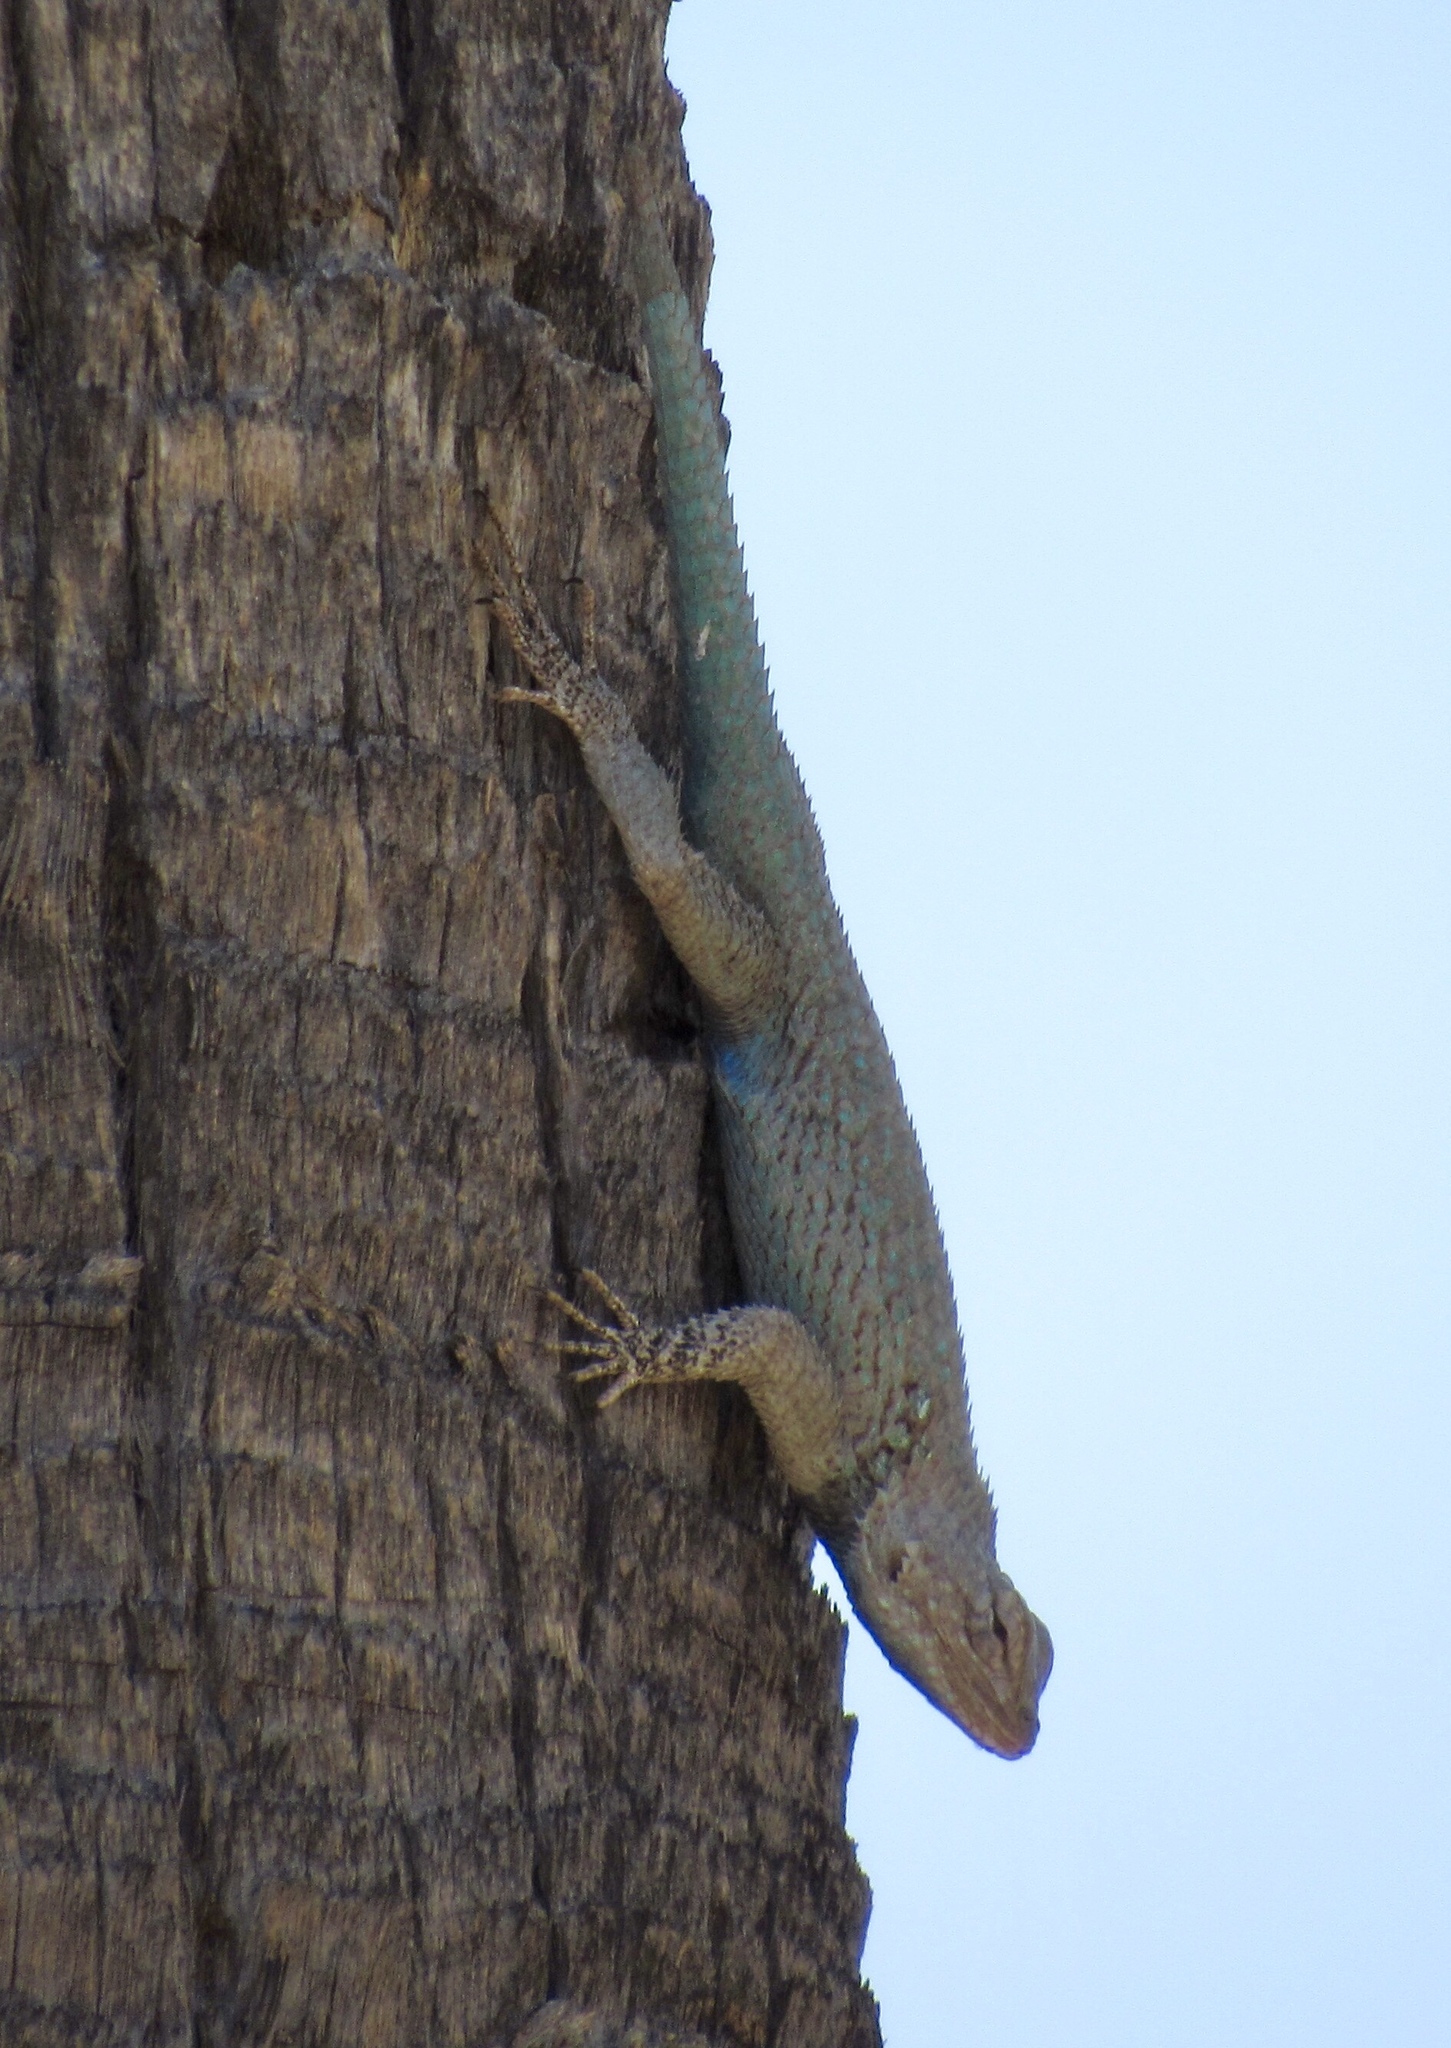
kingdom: Animalia
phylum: Chordata
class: Squamata
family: Phrynosomatidae
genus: Sceloporus
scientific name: Sceloporus clarkii
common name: Clark's spiny lizard
